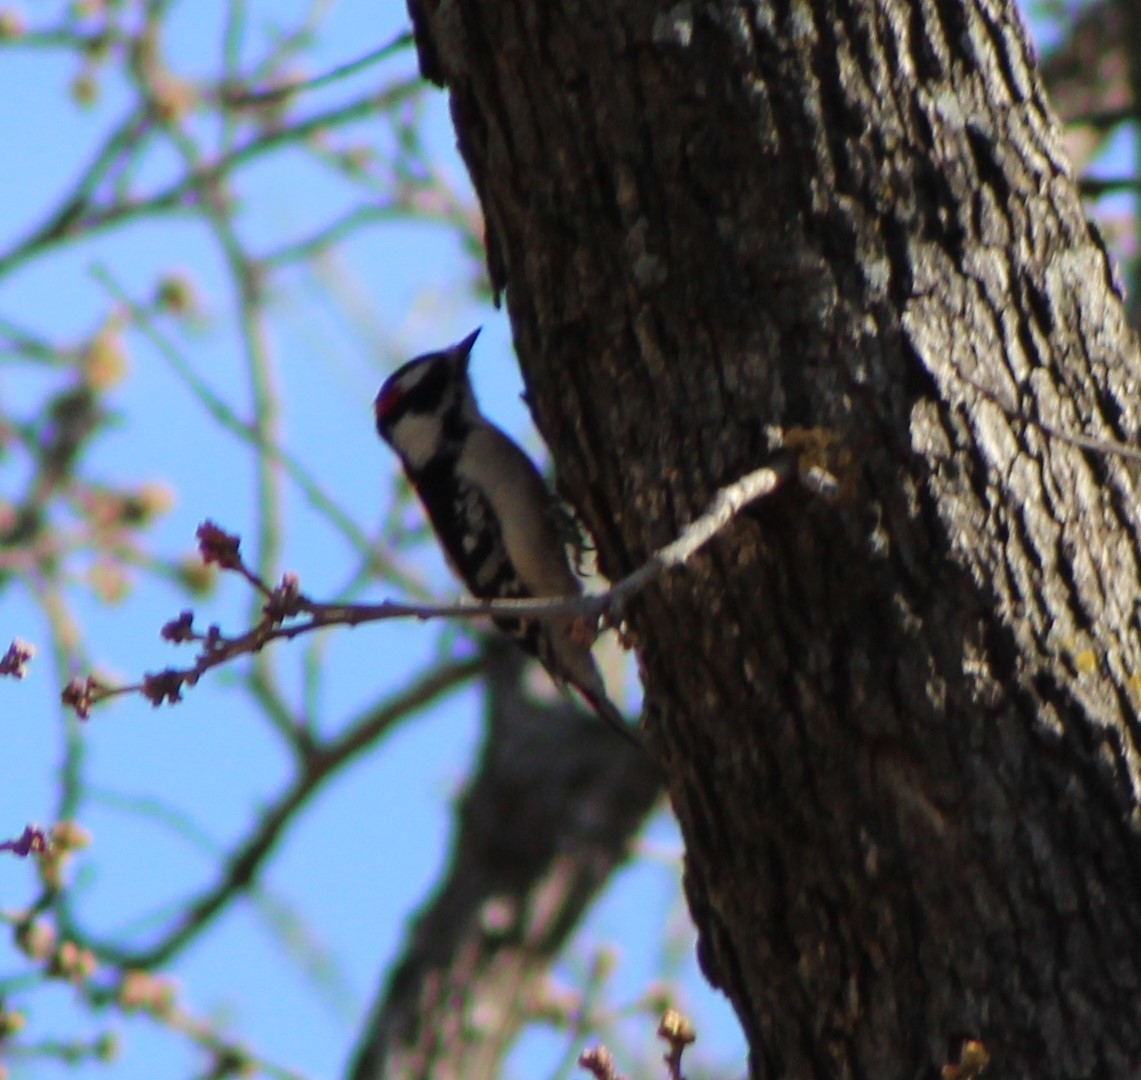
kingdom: Animalia
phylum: Chordata
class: Aves
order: Piciformes
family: Picidae
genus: Dryobates
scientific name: Dryobates pubescens
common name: Downy woodpecker
